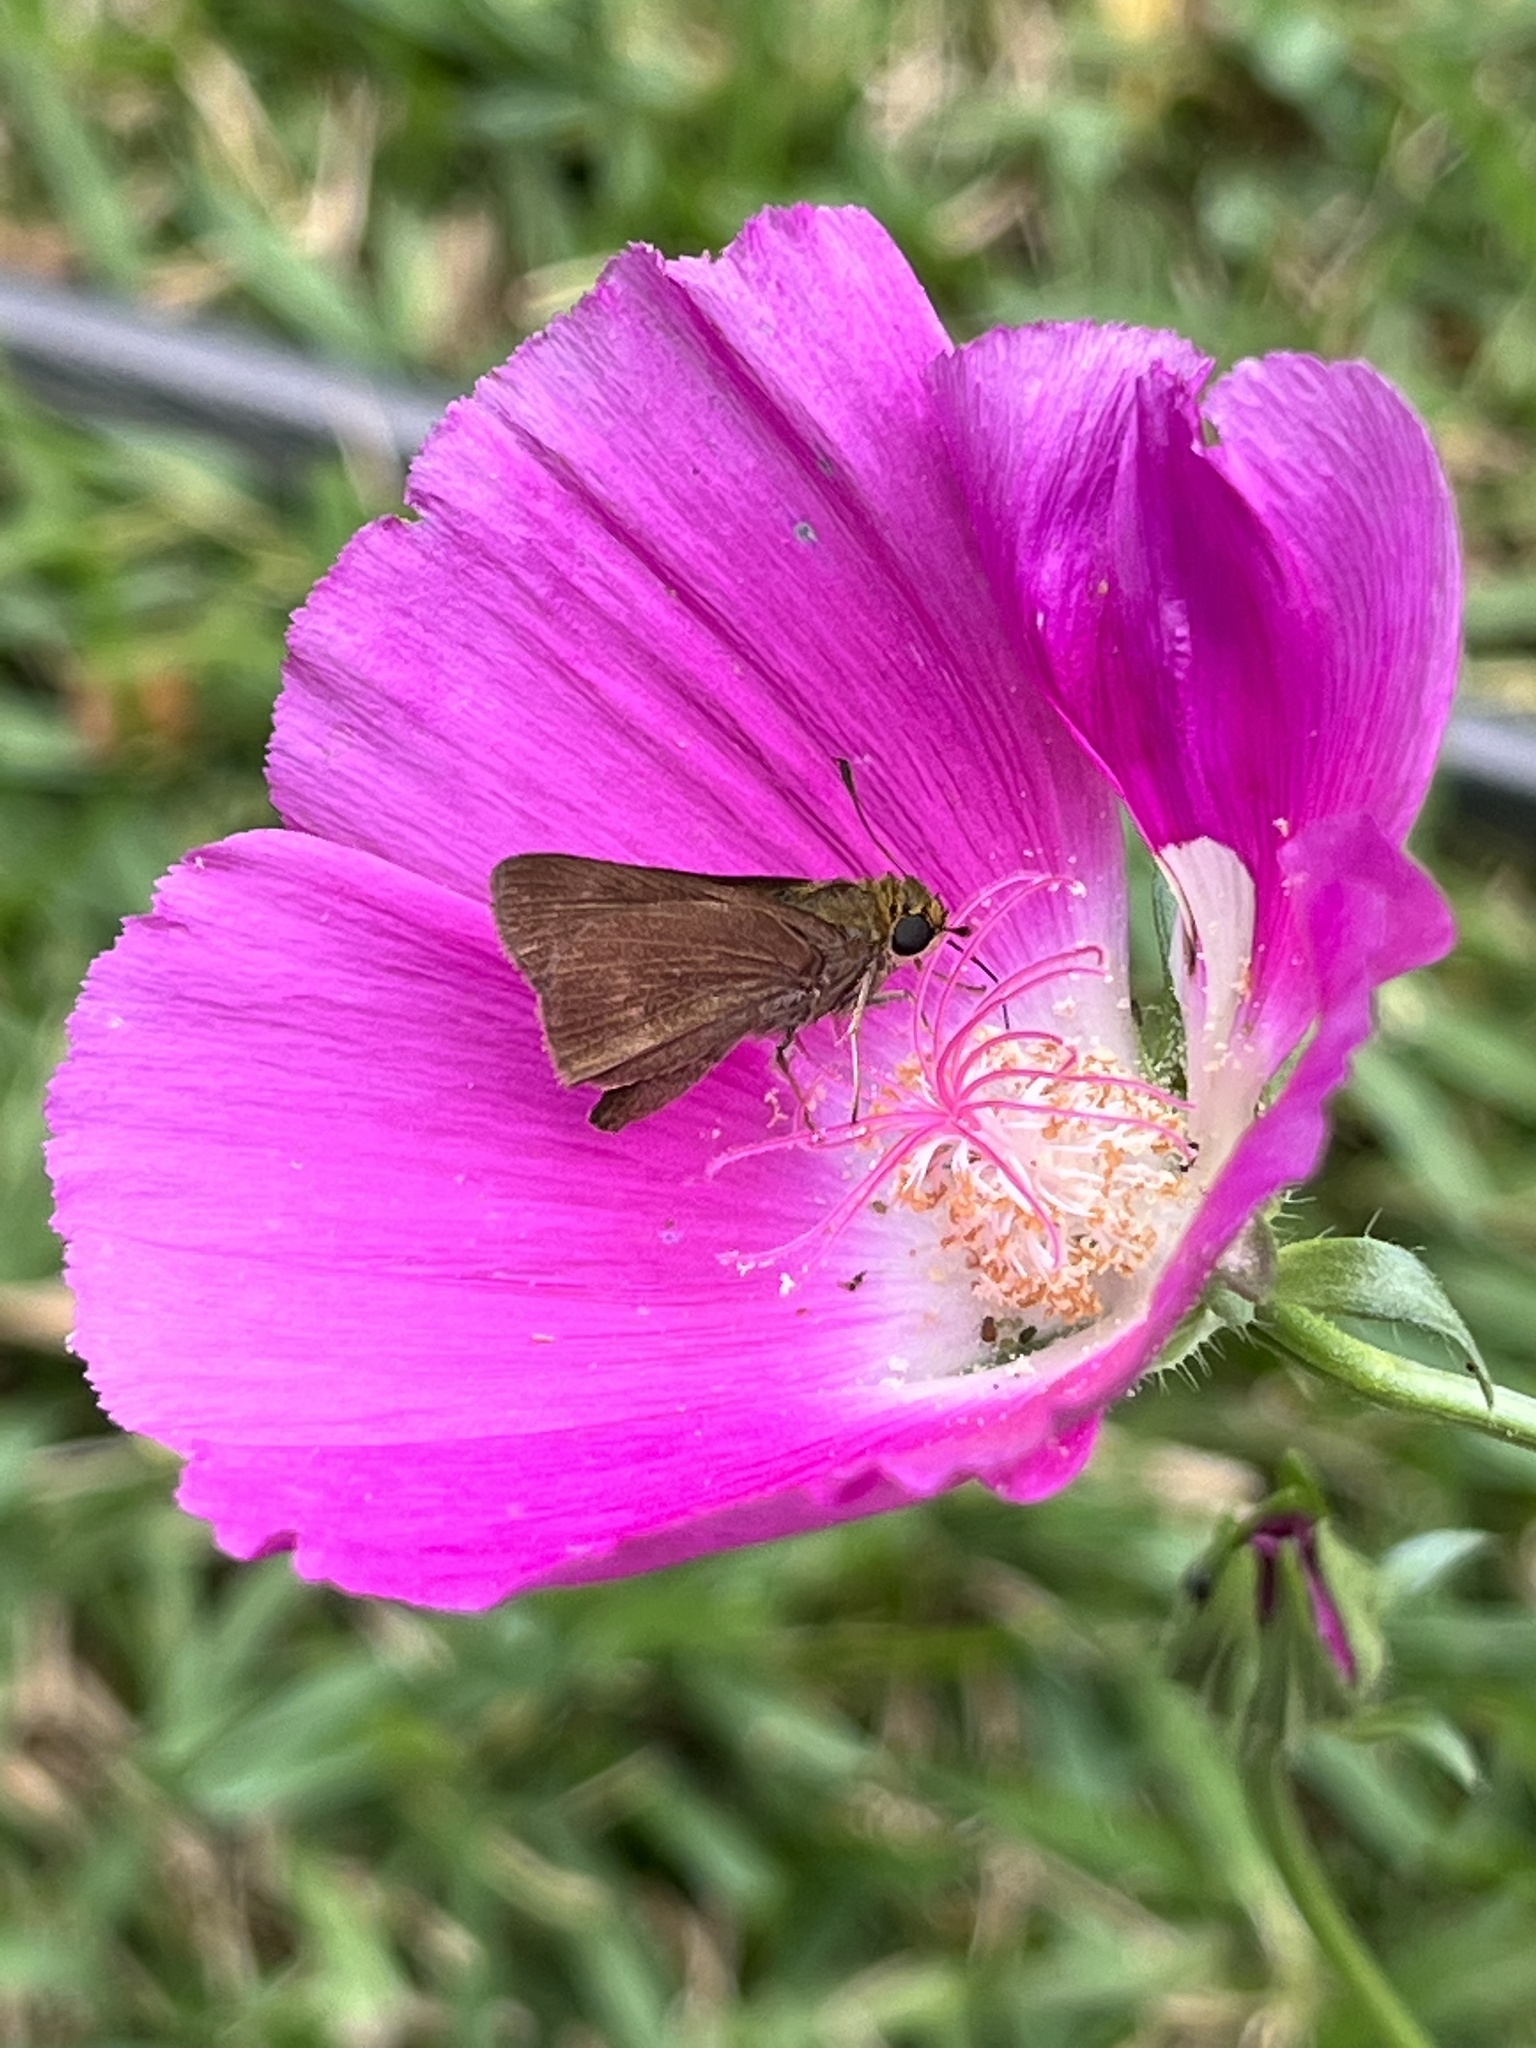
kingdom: Animalia
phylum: Arthropoda
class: Insecta
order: Lepidoptera
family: Hesperiidae
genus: Euphyes
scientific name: Euphyes vestris
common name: Dun skipper
